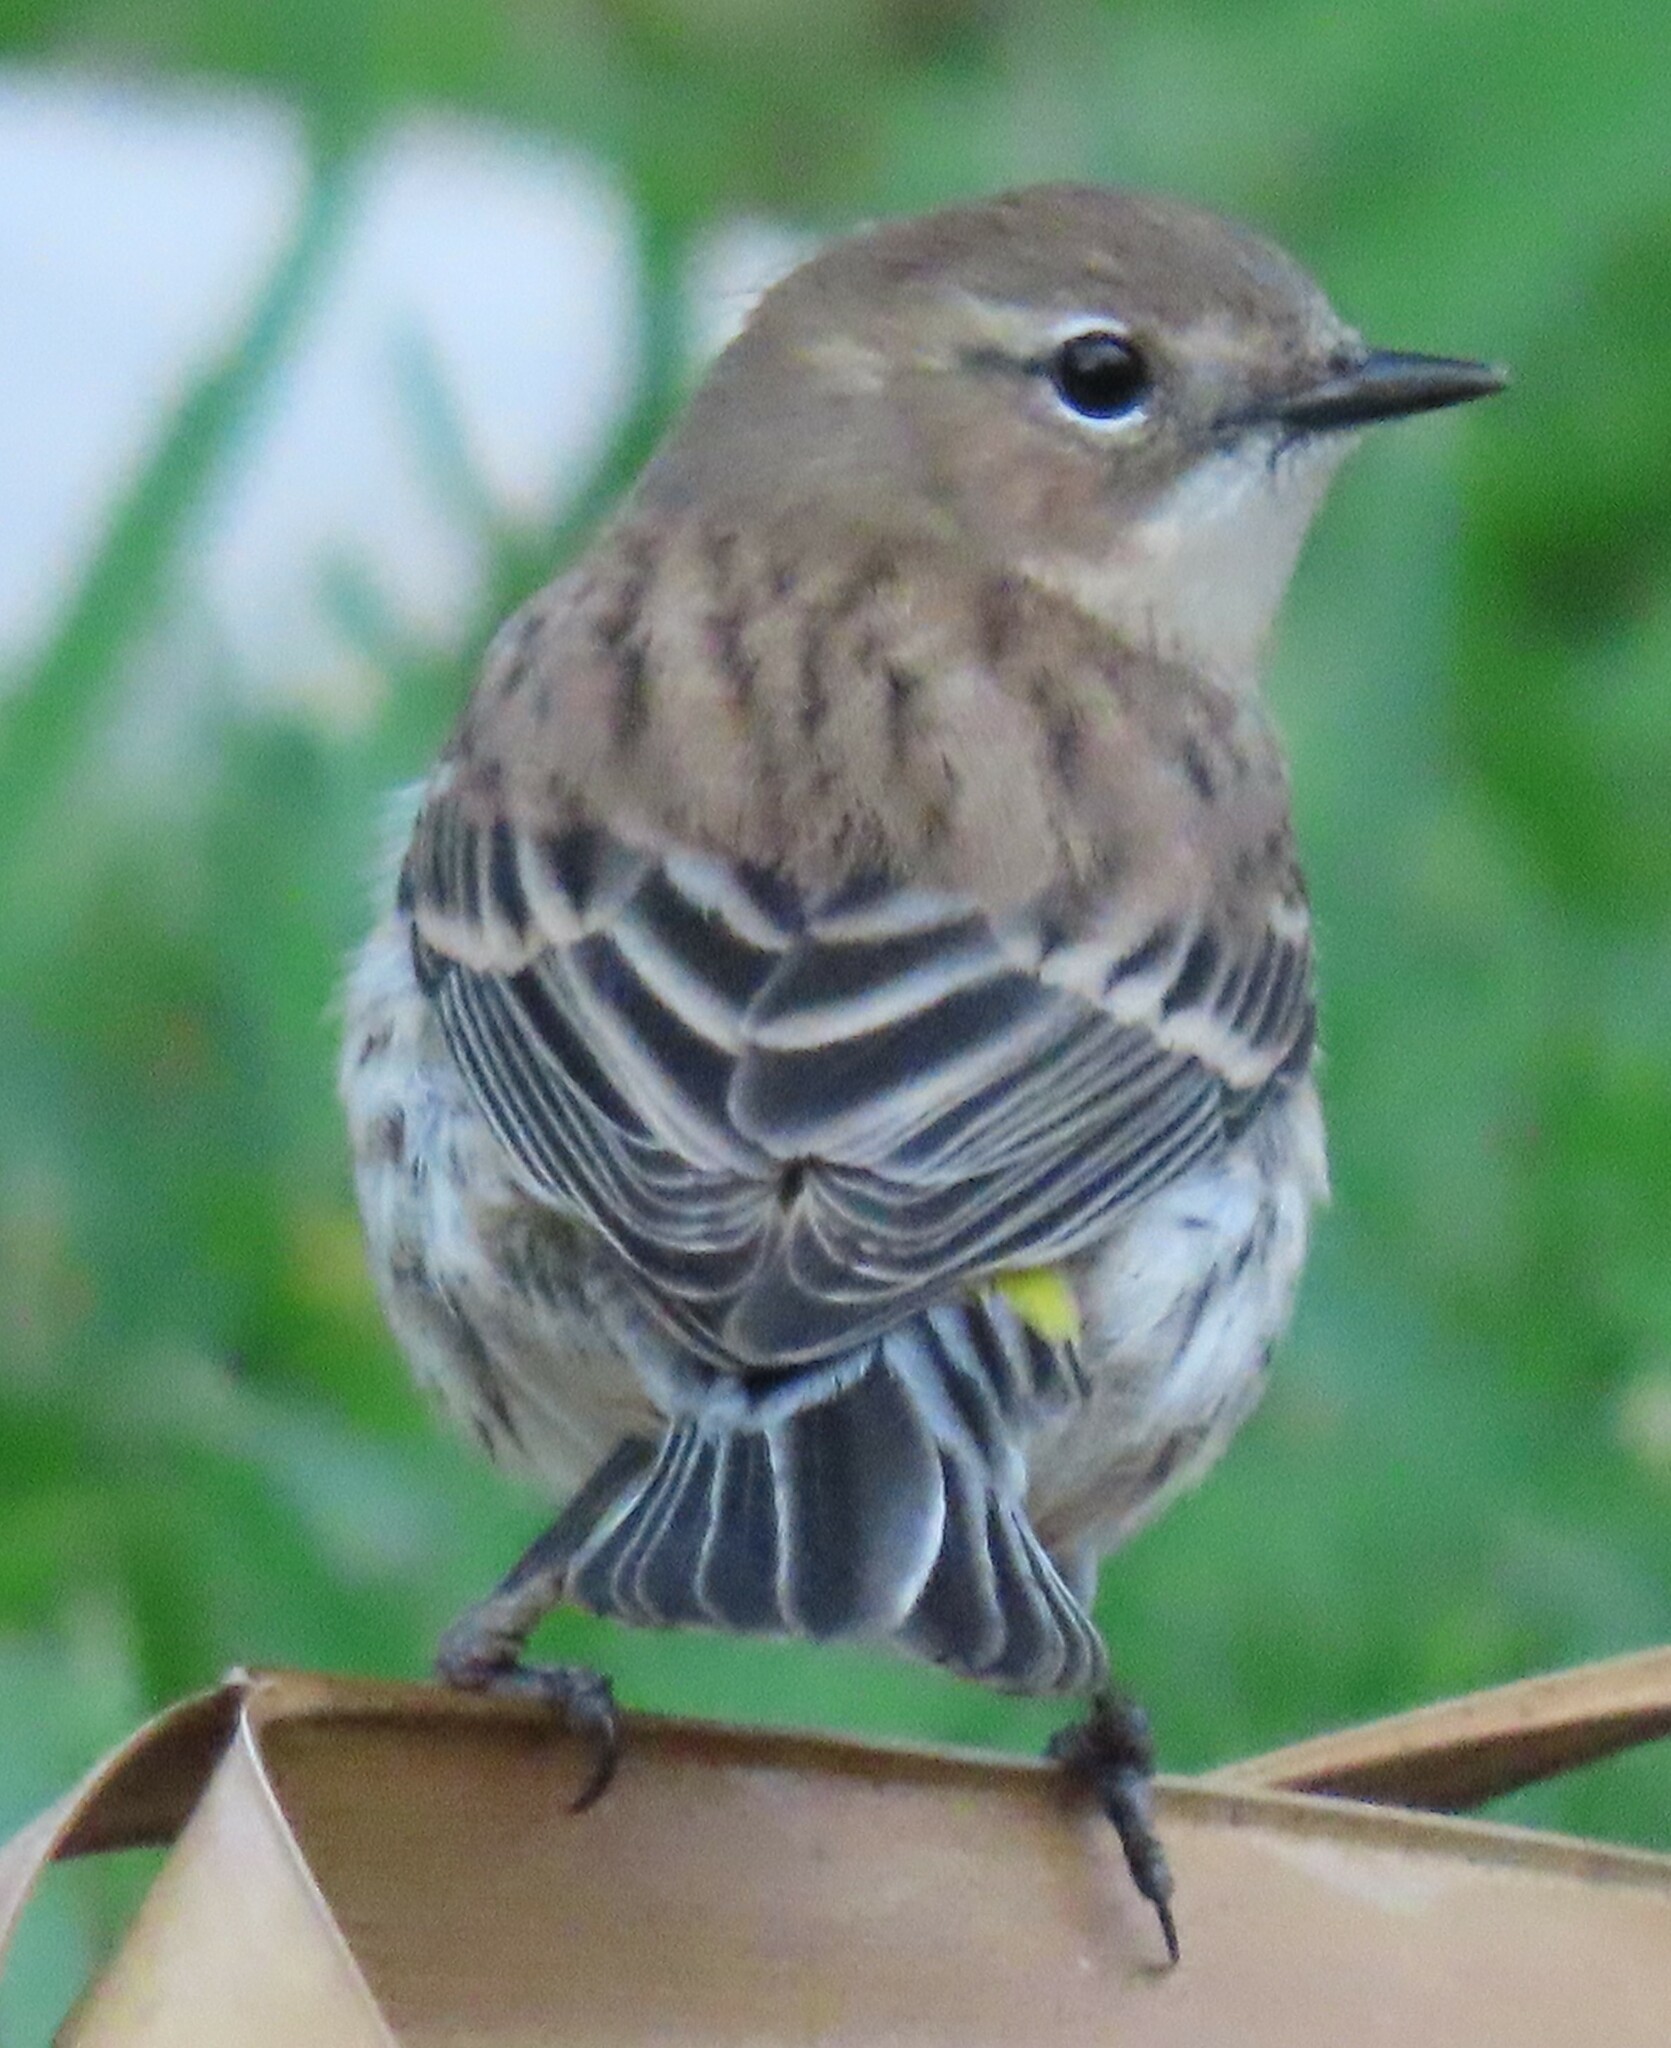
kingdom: Animalia
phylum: Chordata
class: Aves
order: Passeriformes
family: Parulidae
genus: Setophaga
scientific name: Setophaga coronata
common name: Myrtle warbler
